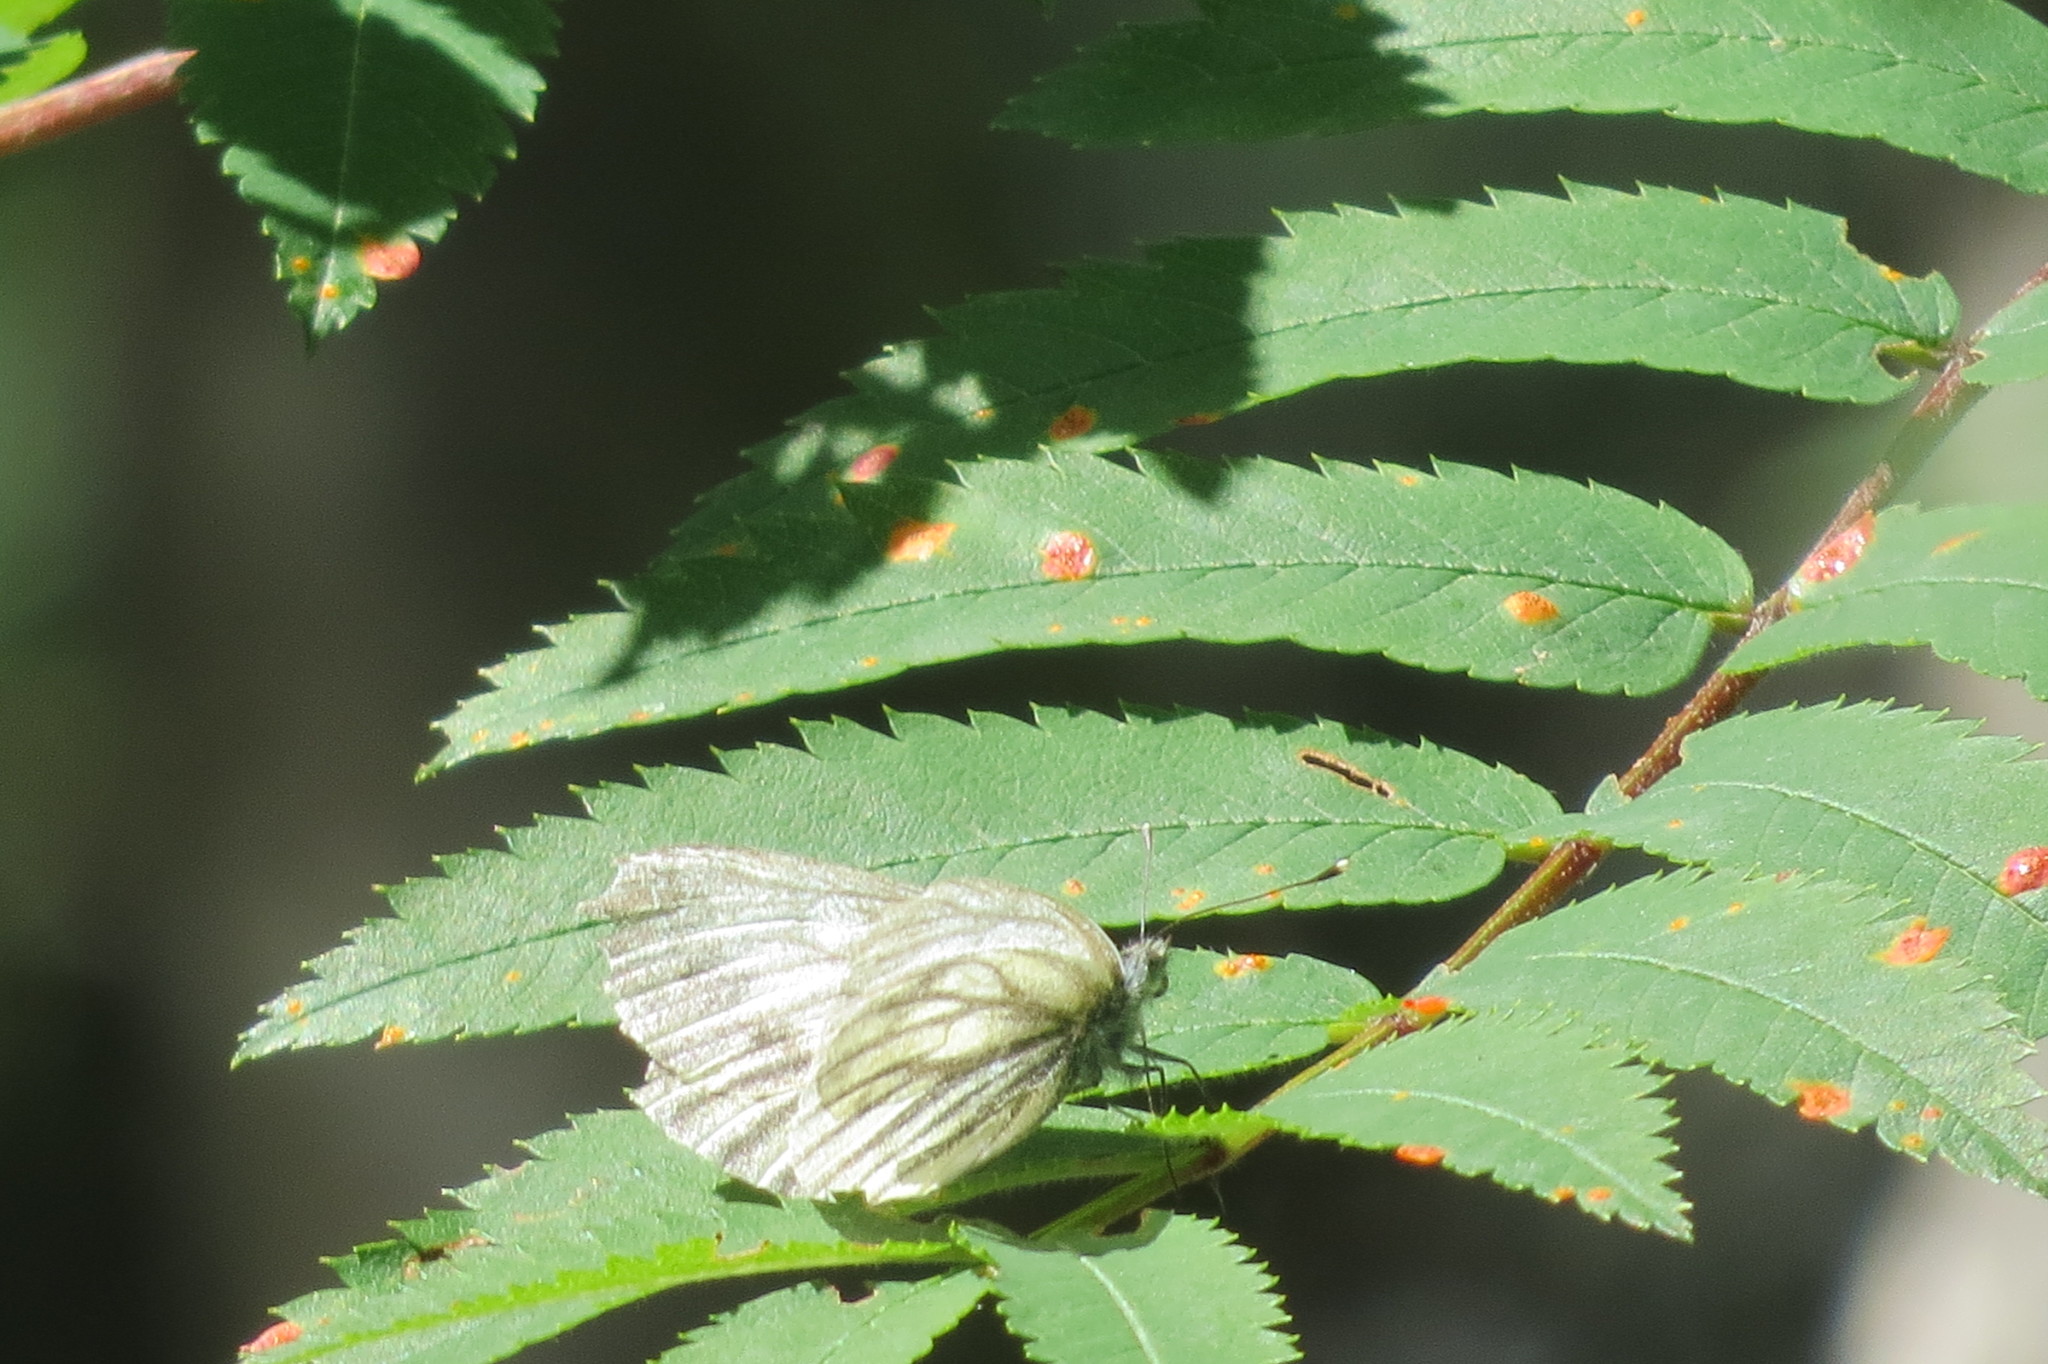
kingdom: Animalia
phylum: Arthropoda
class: Insecta
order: Lepidoptera
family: Pieridae
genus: Pieris
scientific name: Pieris bryoniae
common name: Mountain green-veined white
